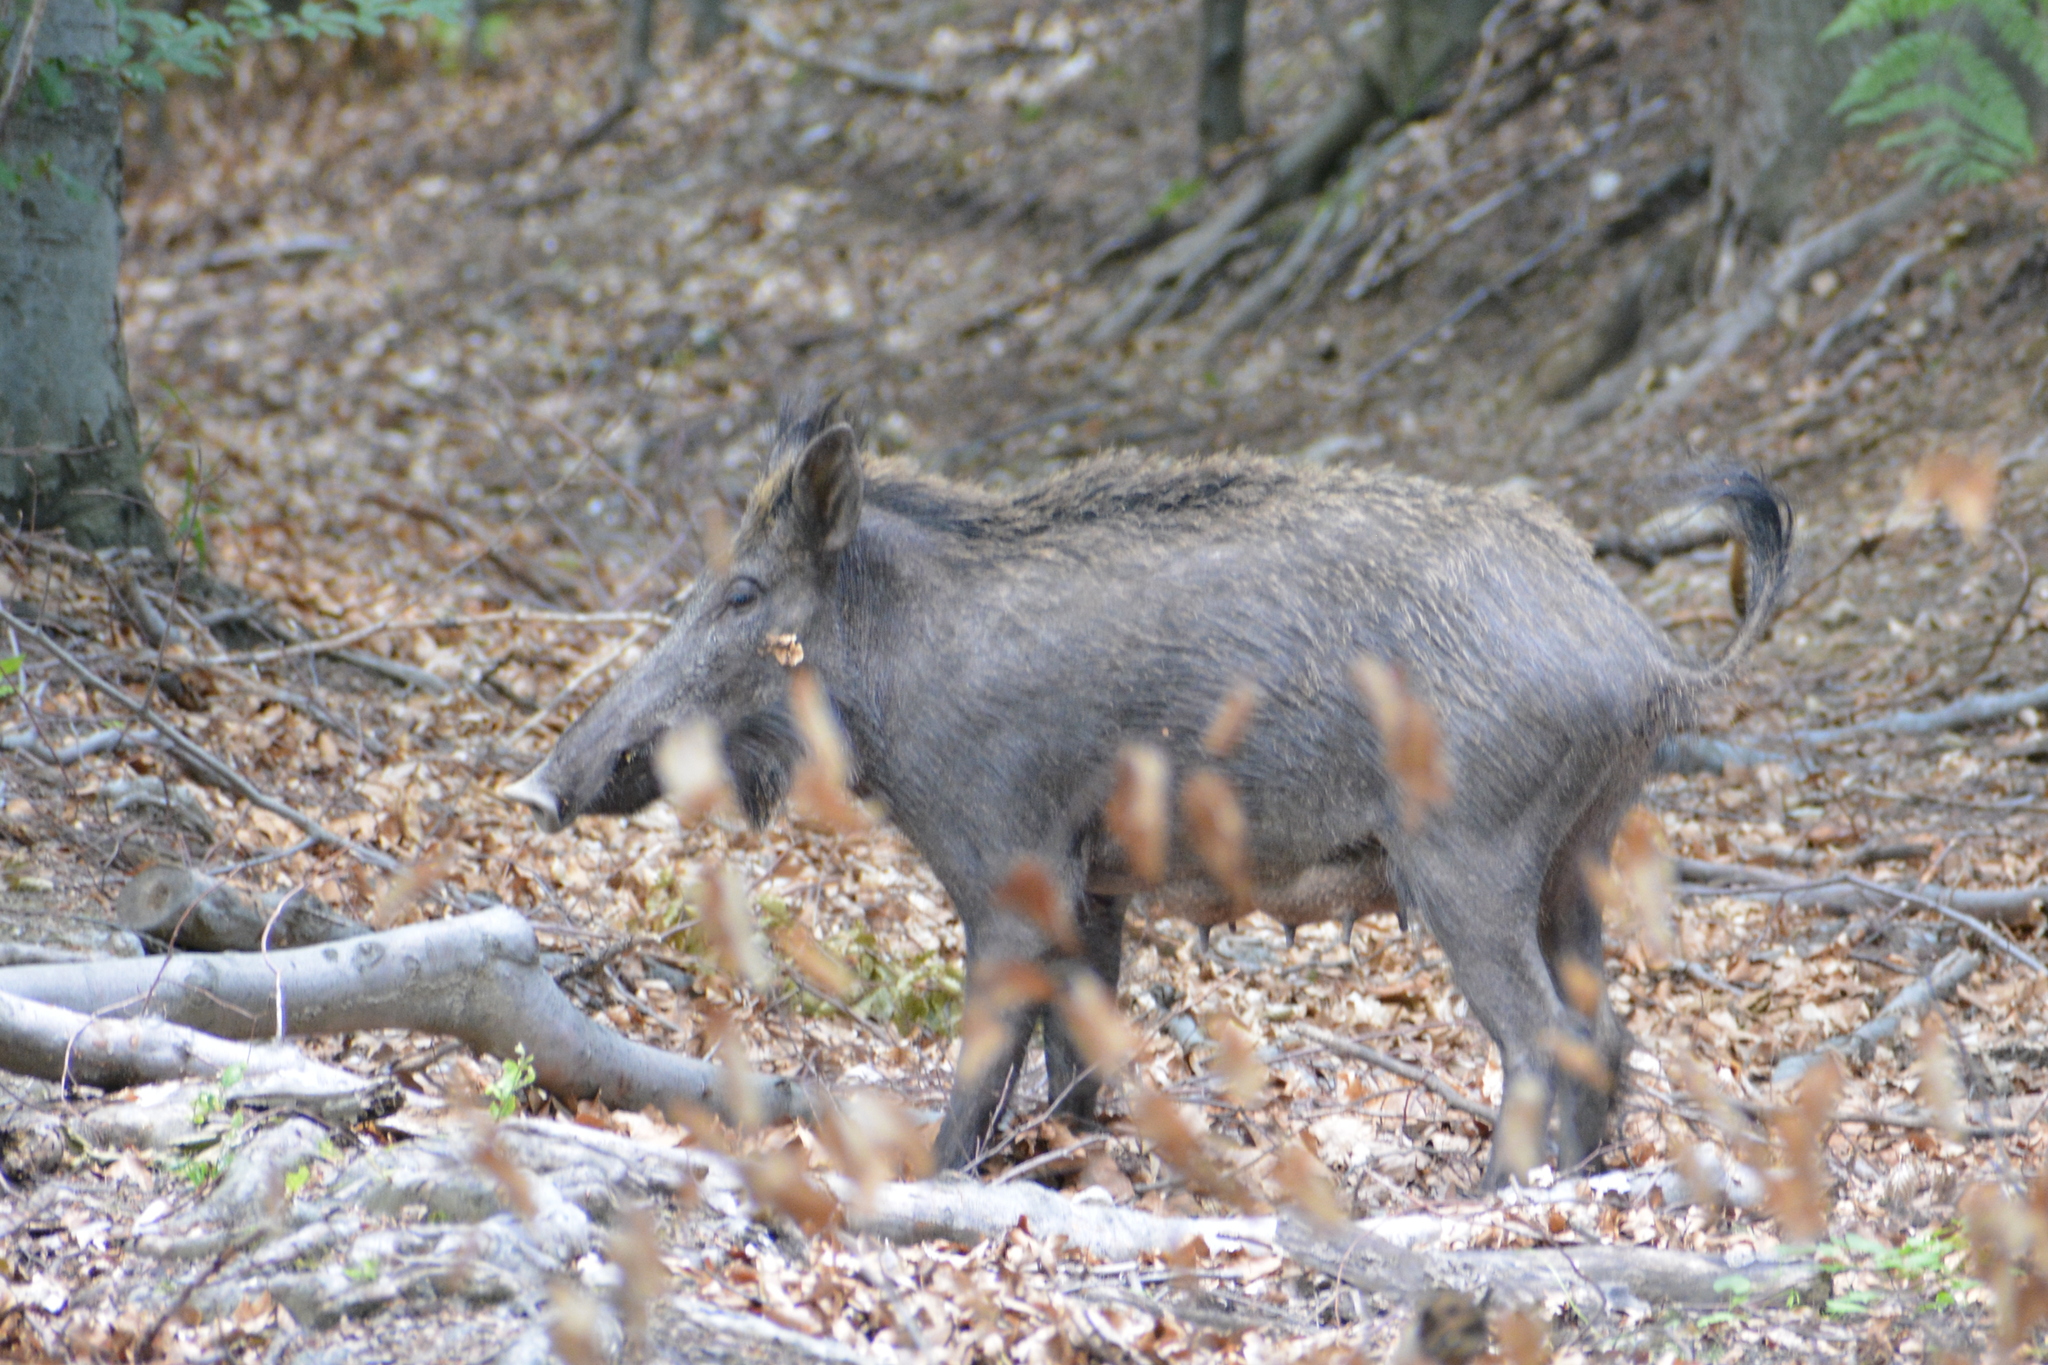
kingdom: Animalia
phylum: Chordata
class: Mammalia
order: Artiodactyla
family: Suidae
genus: Sus
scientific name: Sus scrofa
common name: Wild boar
